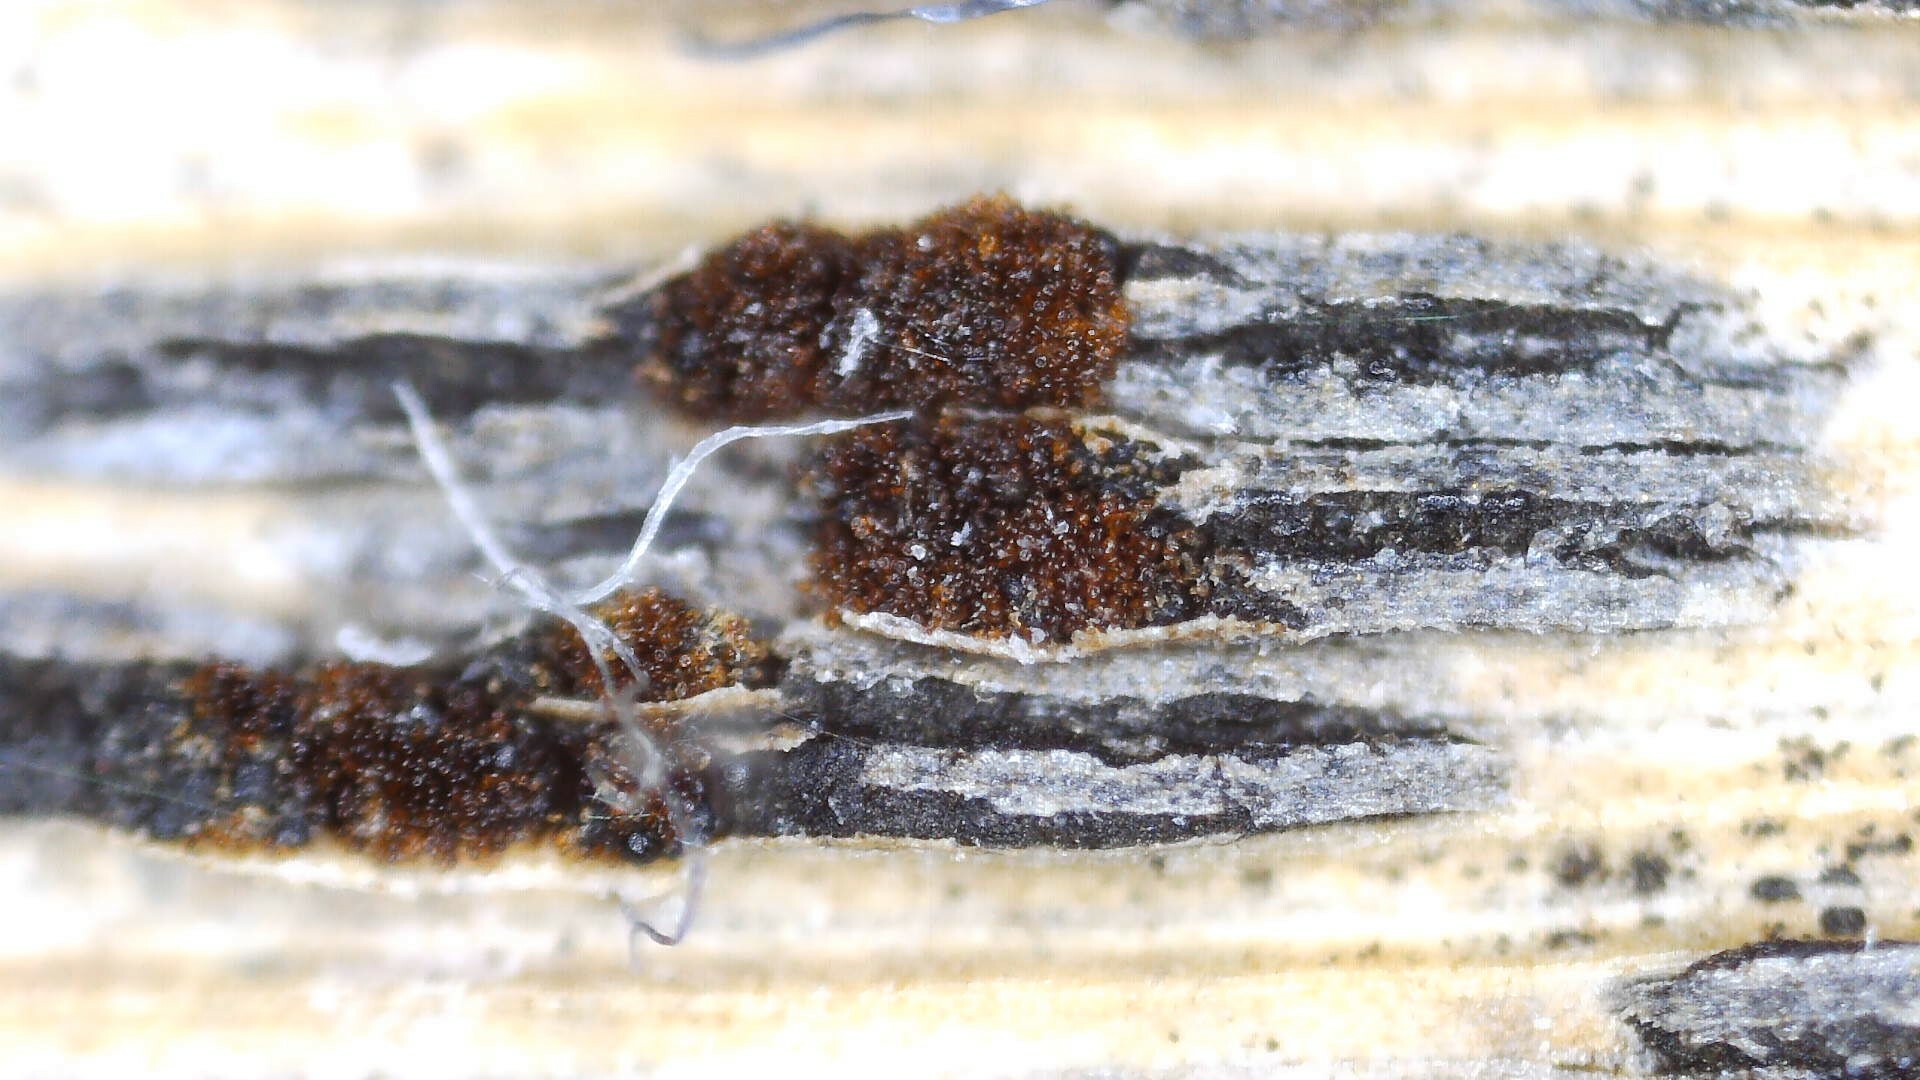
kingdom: Fungi
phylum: Basidiomycota
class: Pucciniomycetes
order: Pucciniales
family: Pucciniaceae
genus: Puccinia
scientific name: Puccinia phragmitis
